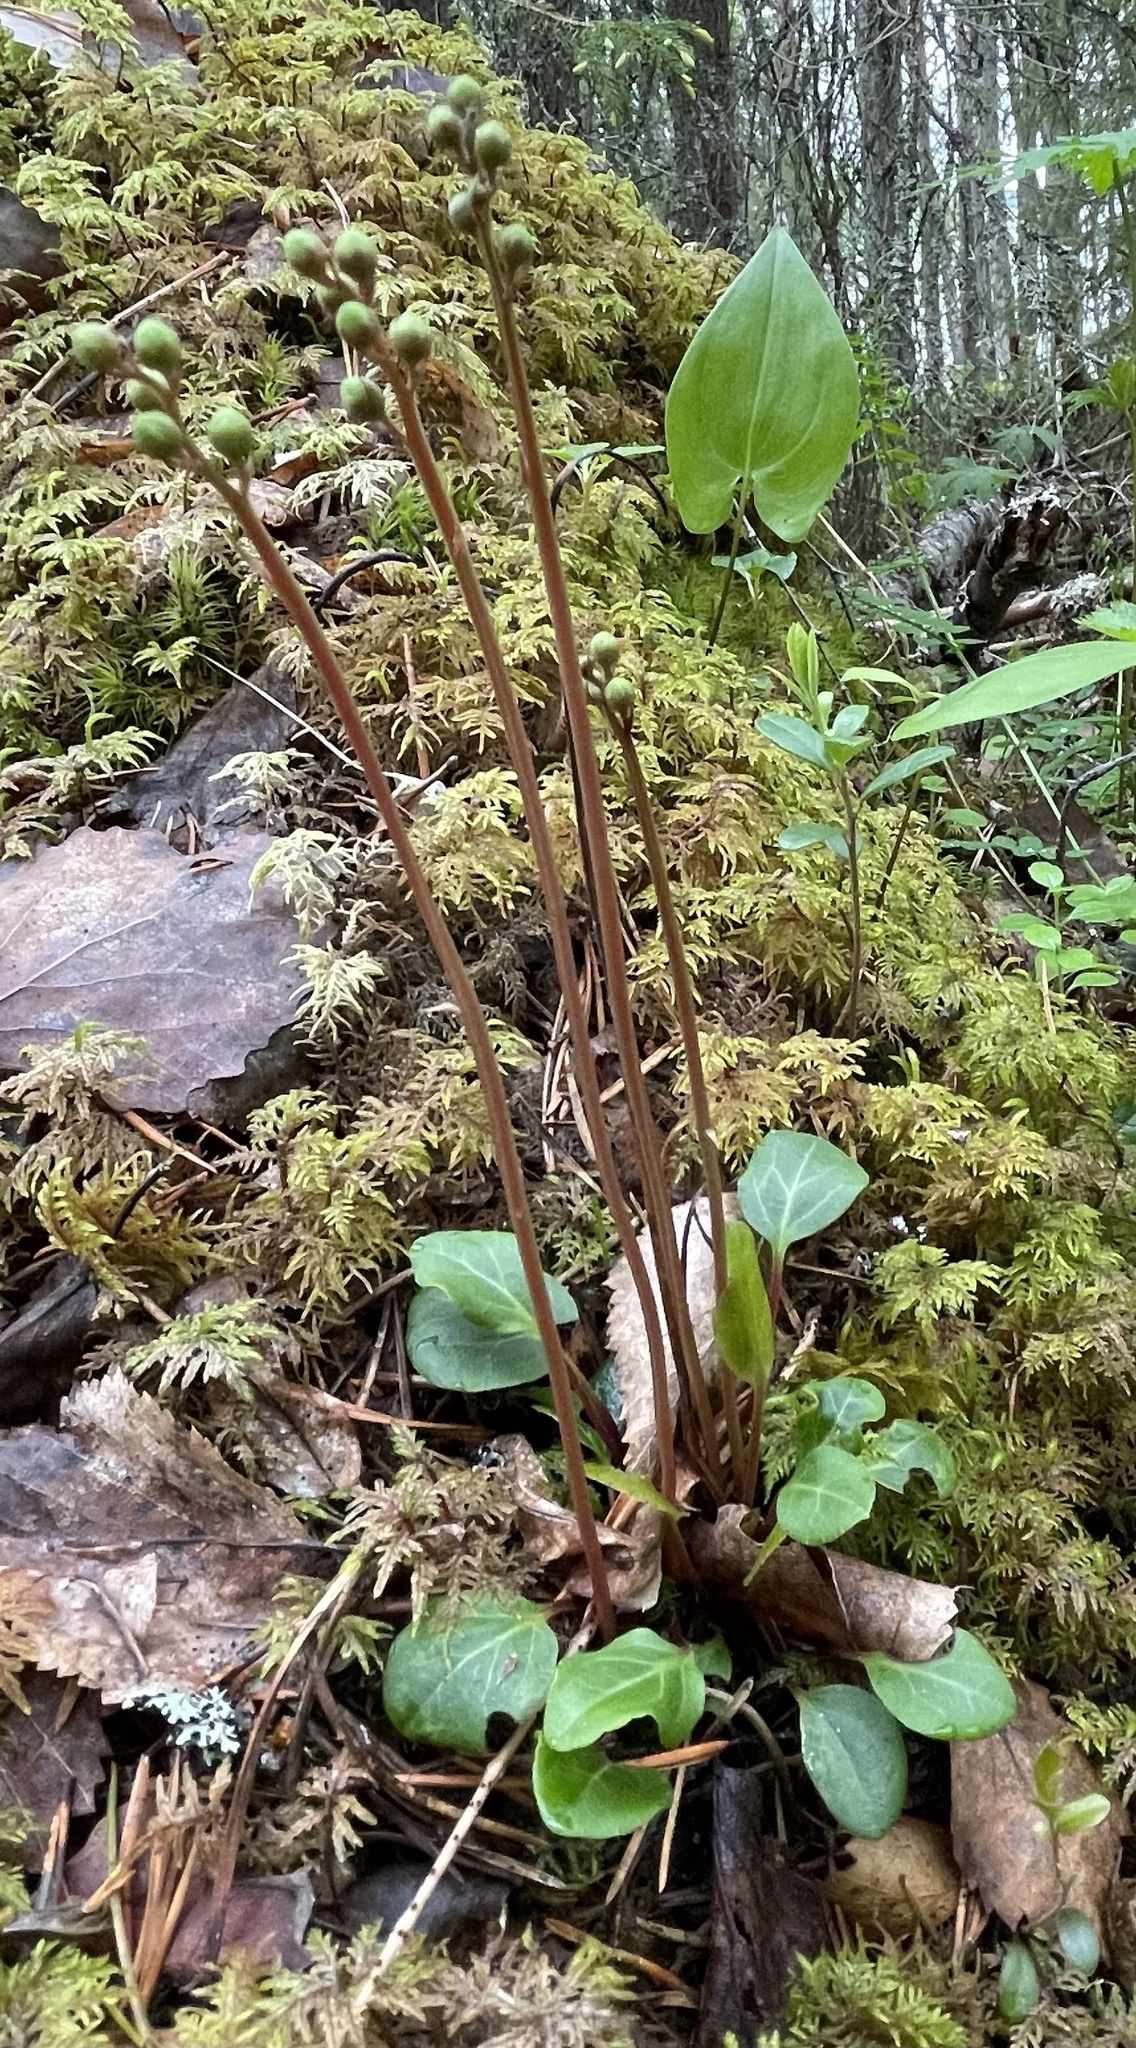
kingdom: Plantae
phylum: Tracheophyta
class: Magnoliopsida
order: Ericales
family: Ericaceae
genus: Pyrola
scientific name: Pyrola chlorantha
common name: Green wintergreen
